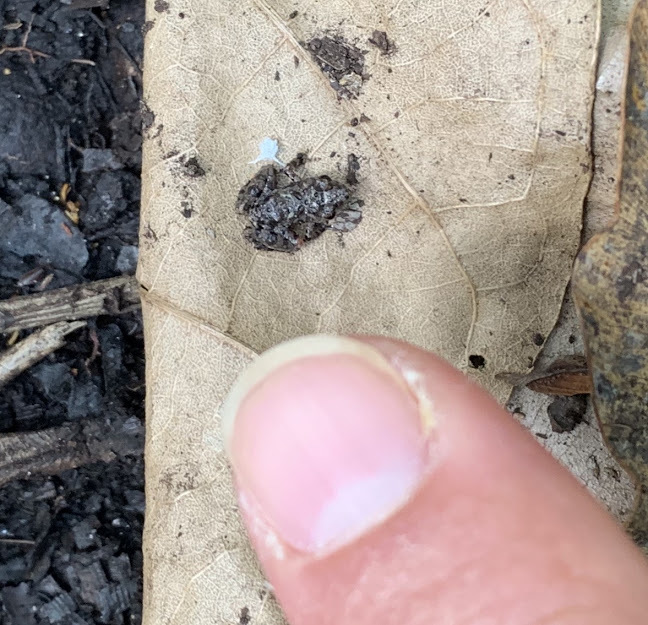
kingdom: Animalia
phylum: Chordata
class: Amphibia
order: Anura
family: Phrynobatrachidae
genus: Phrynobatrachus
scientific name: Phrynobatrachus ungujae
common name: Zanzibar puddle frog
